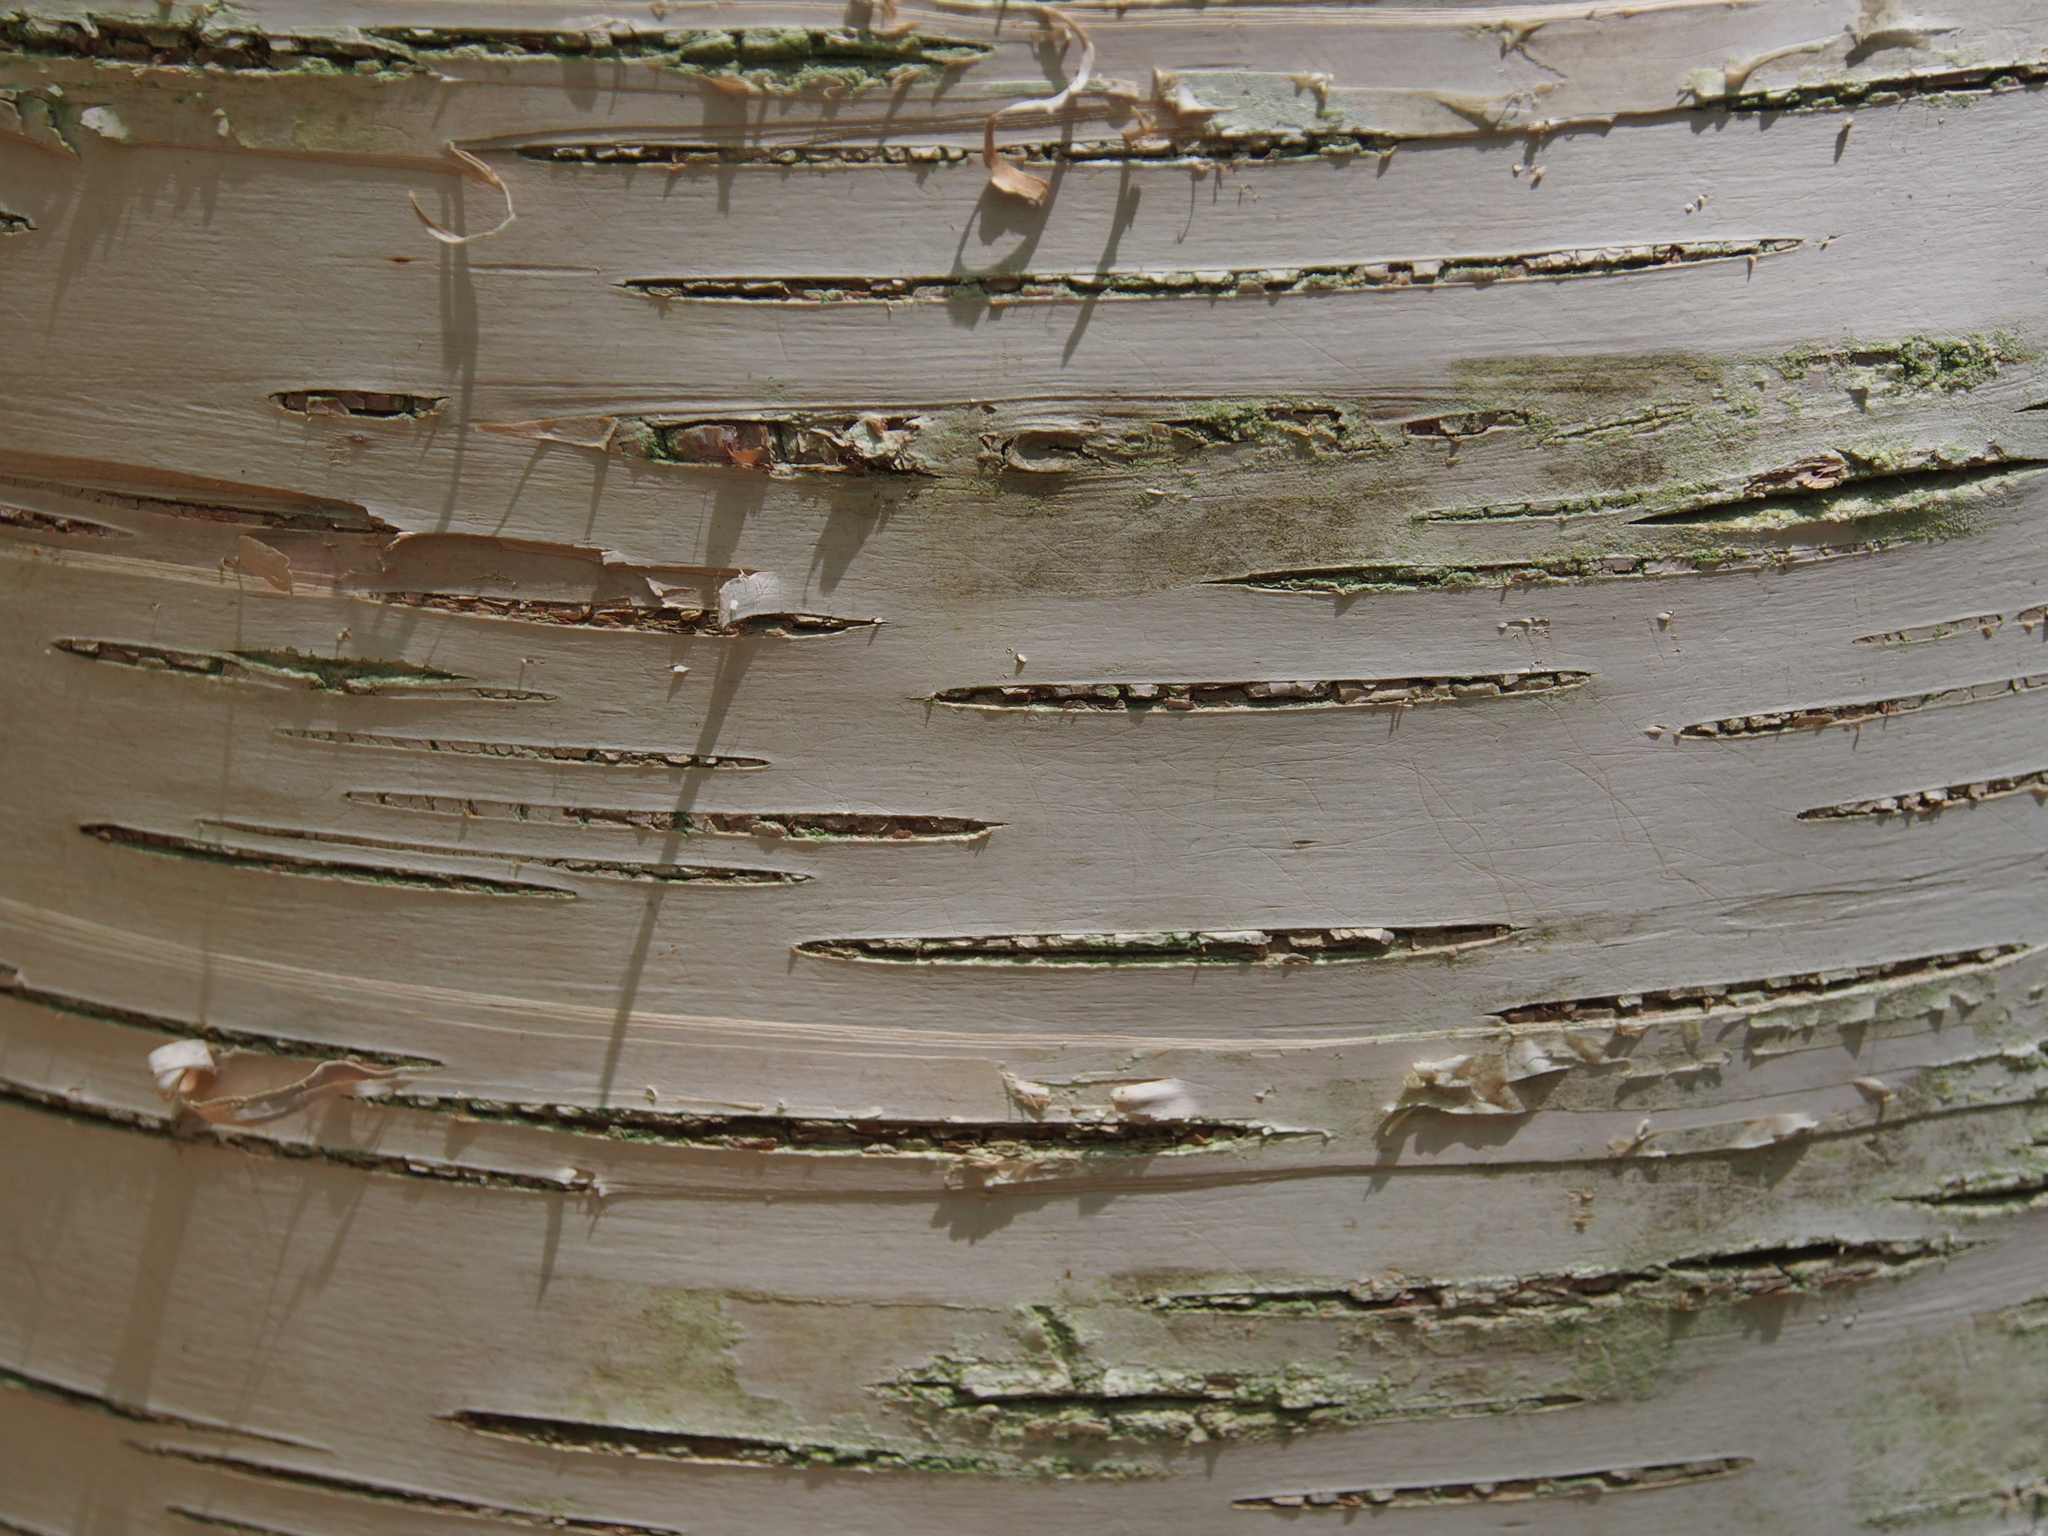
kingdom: Plantae
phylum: Tracheophyta
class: Magnoliopsida
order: Fagales
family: Betulaceae
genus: Betula
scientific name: Betula papyrifera
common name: Paper birch
